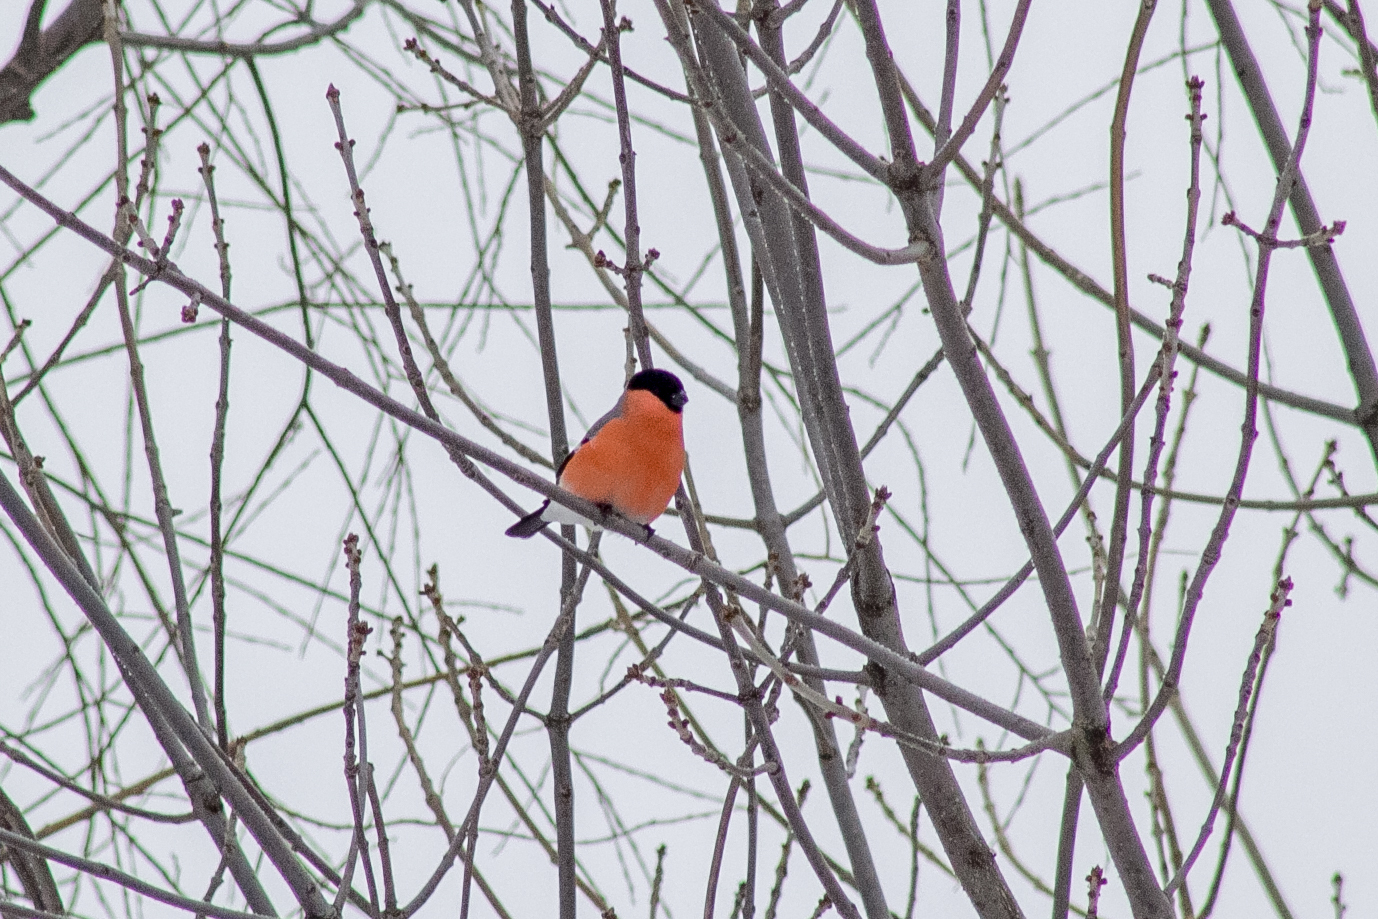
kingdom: Animalia
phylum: Chordata
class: Aves
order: Passeriformes
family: Fringillidae
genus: Pyrrhula
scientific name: Pyrrhula pyrrhula
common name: Eurasian bullfinch
